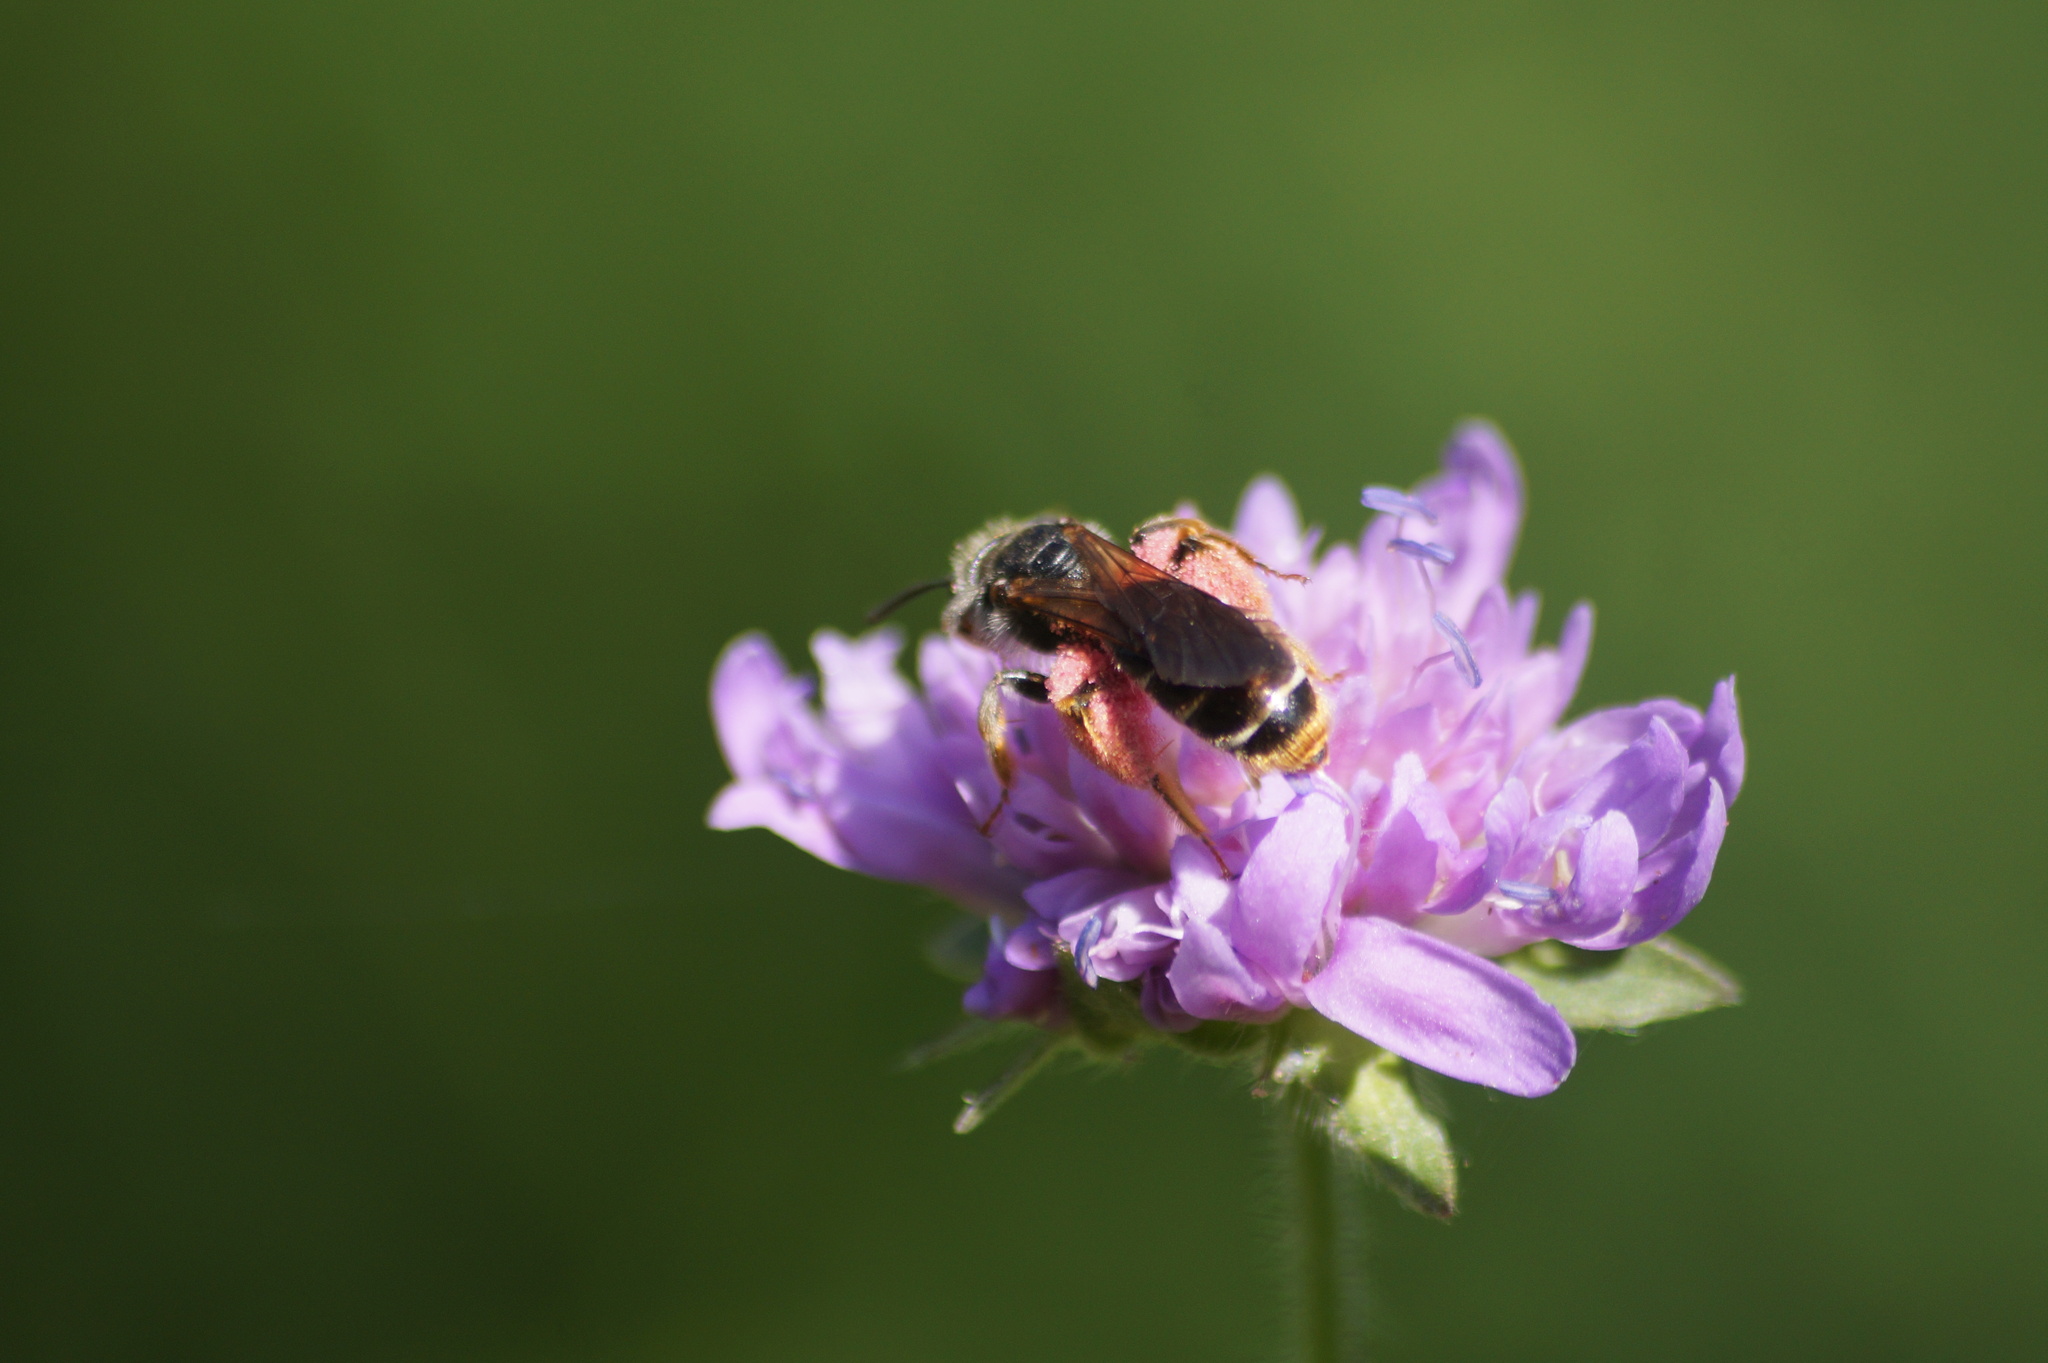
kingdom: Animalia
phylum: Arthropoda
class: Insecta
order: Hymenoptera
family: Andrenidae
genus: Andrena
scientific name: Andrena hattorfiana
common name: Large scabious mining bee
